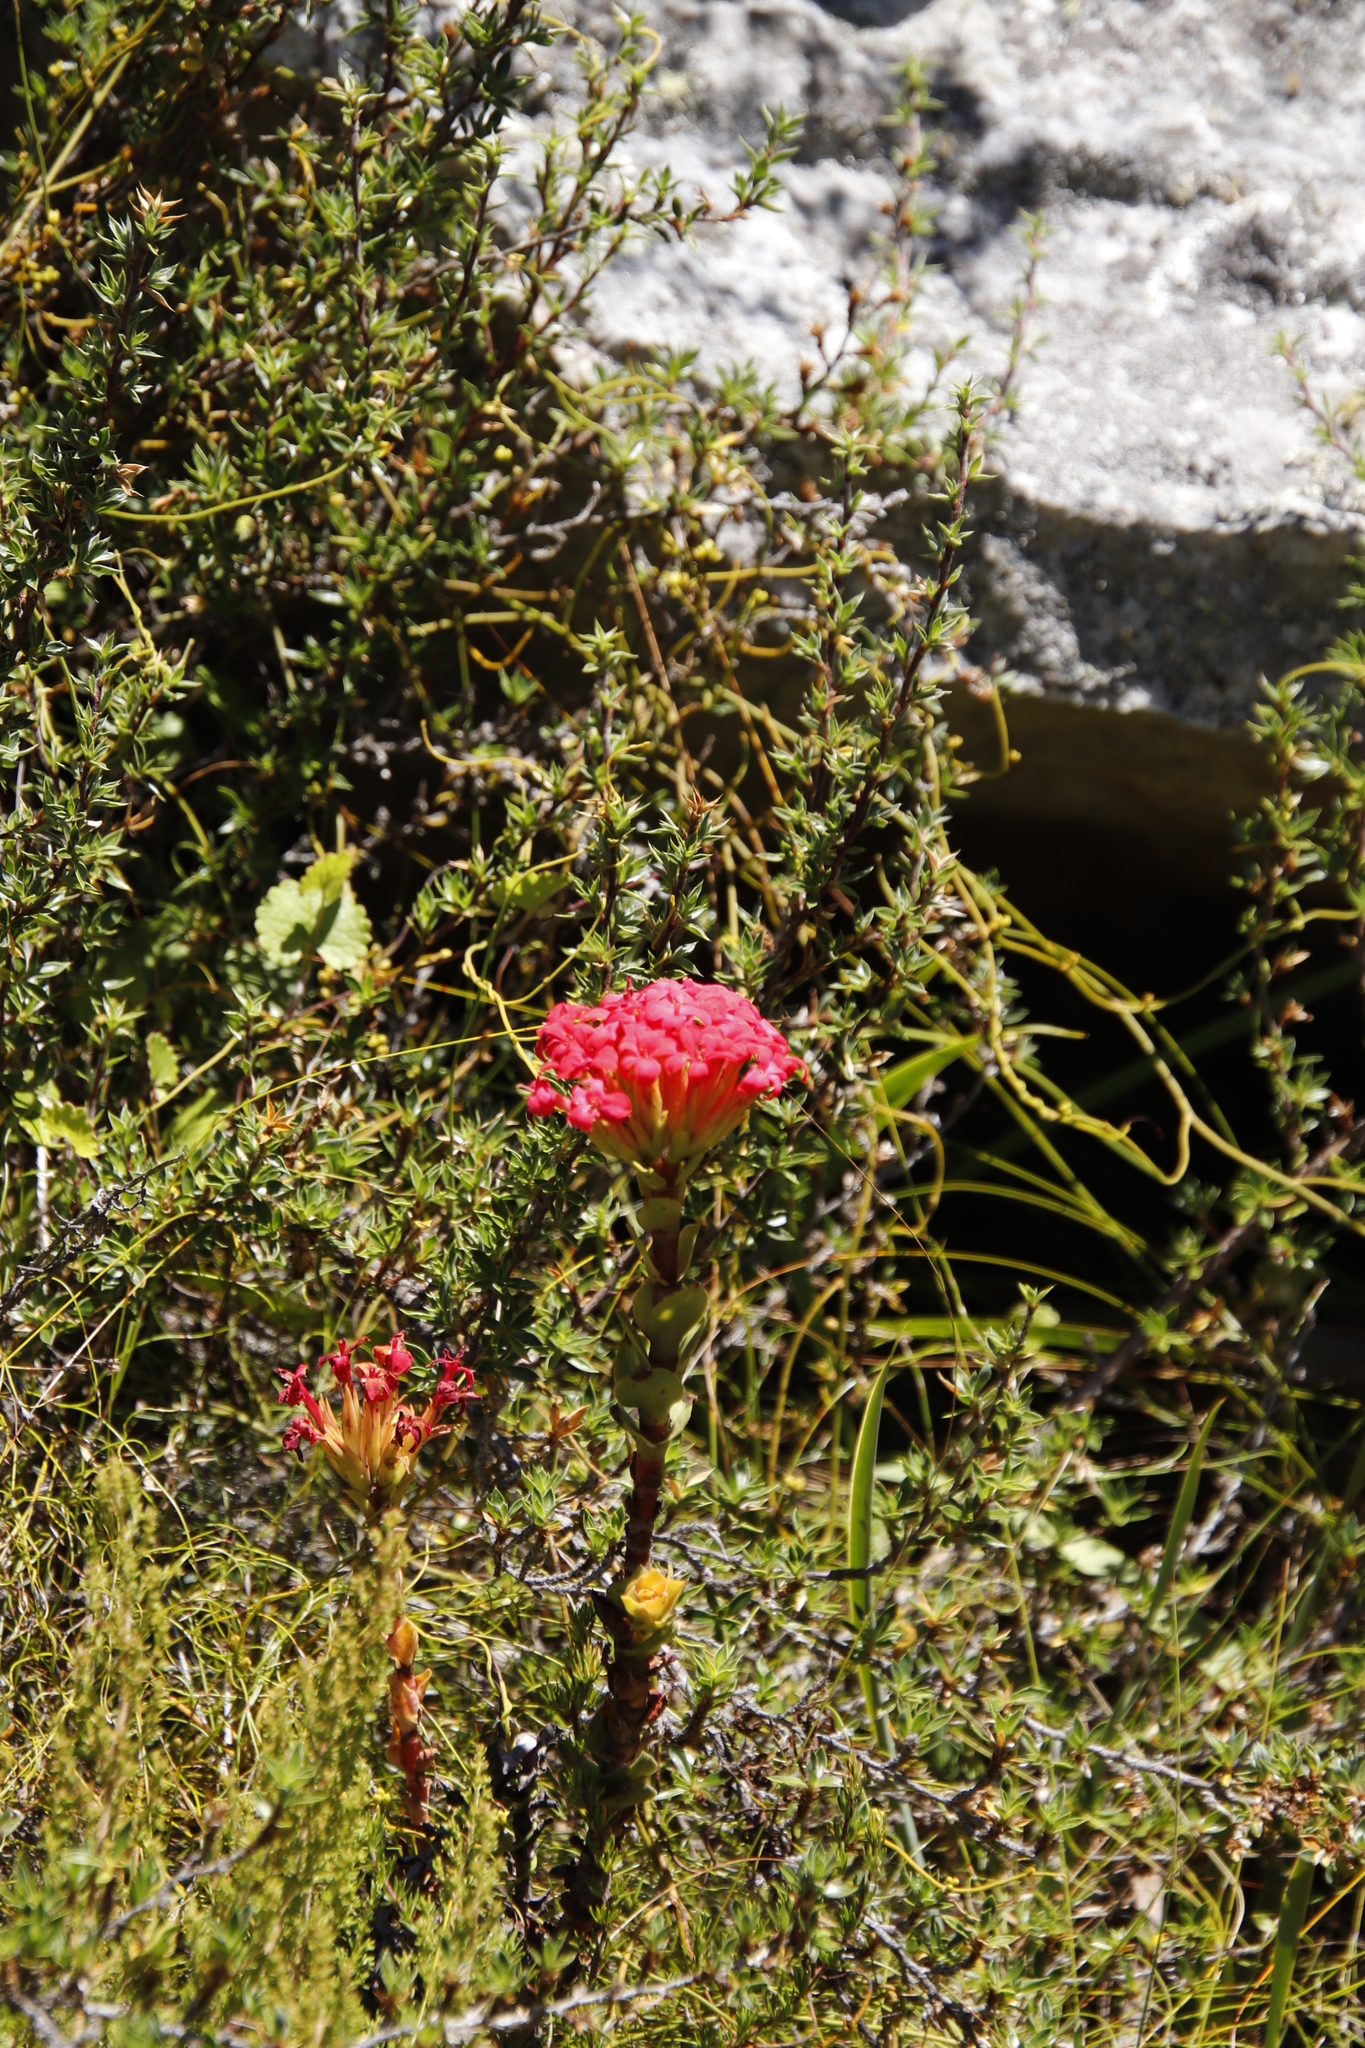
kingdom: Plantae
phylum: Tracheophyta
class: Magnoliopsida
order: Saxifragales
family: Crassulaceae
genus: Crassula
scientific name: Crassula coccinea
